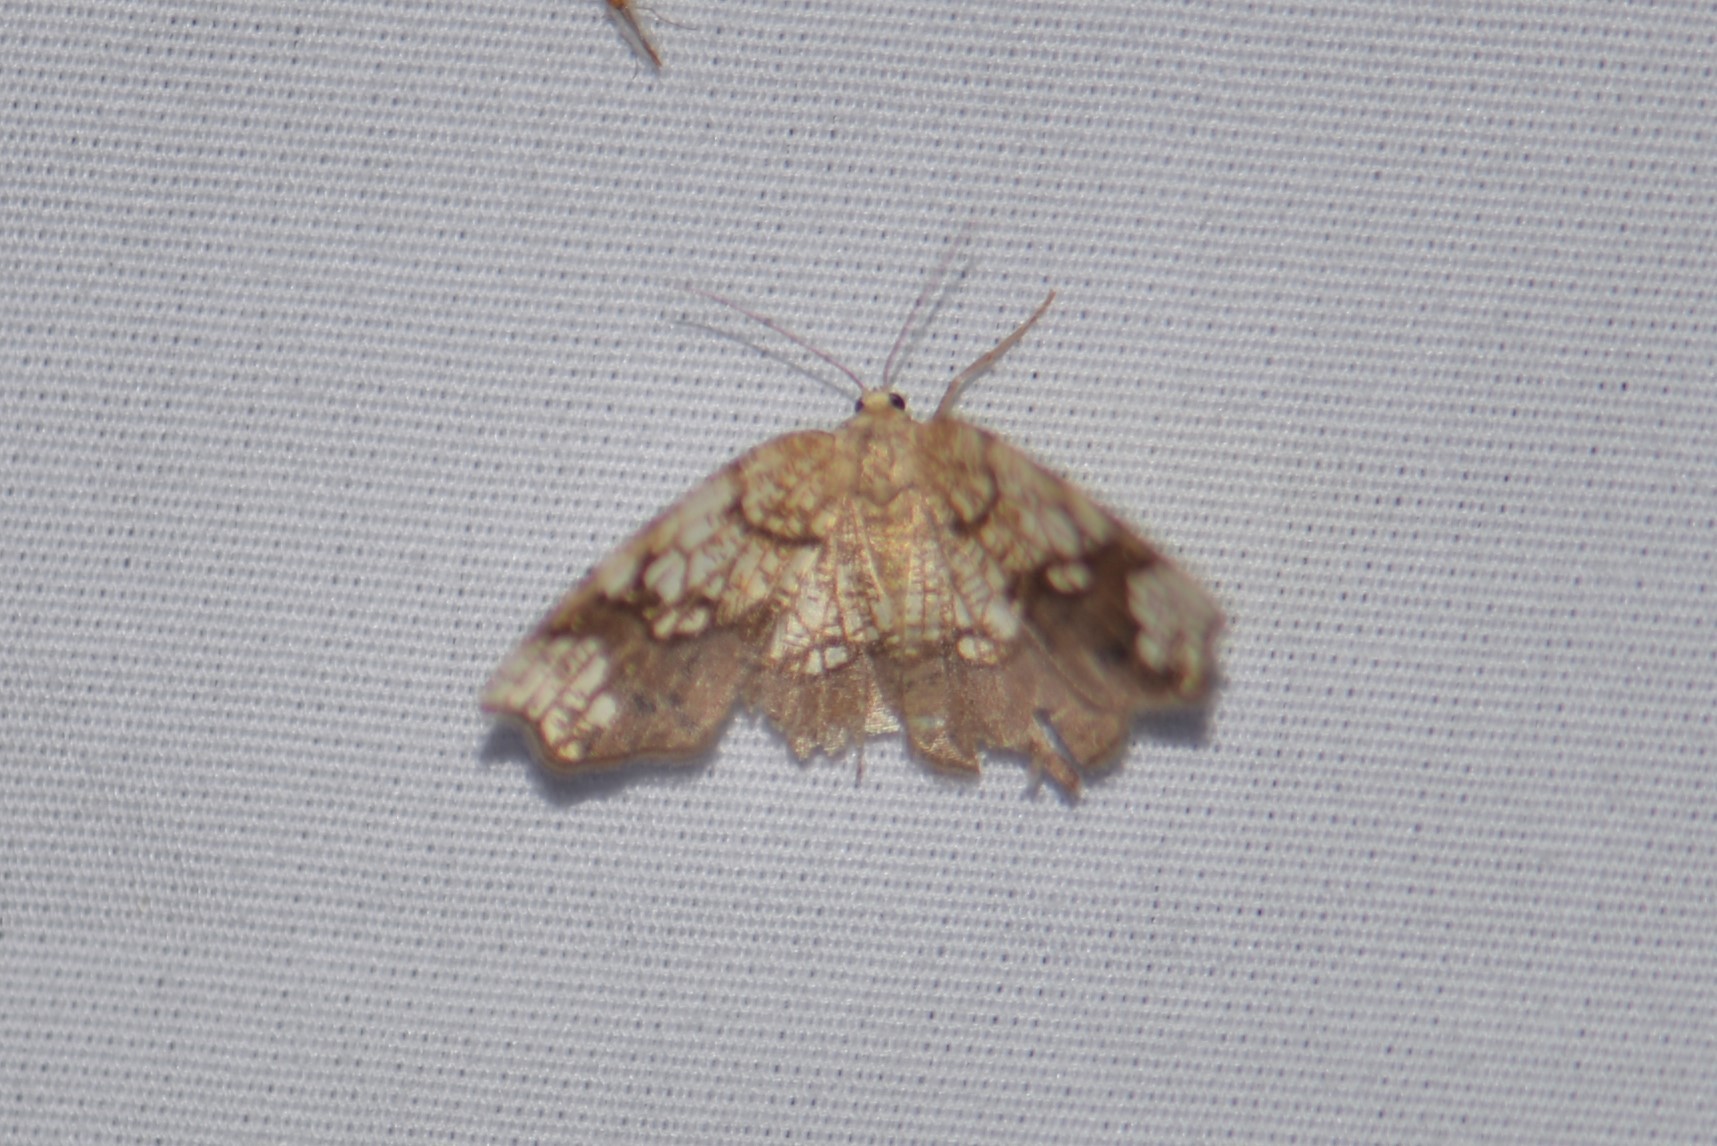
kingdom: Animalia
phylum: Arthropoda
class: Insecta
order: Lepidoptera
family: Geometridae
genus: Nematocampa
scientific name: Nematocampa resistaria
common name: Horned spanworm moth
